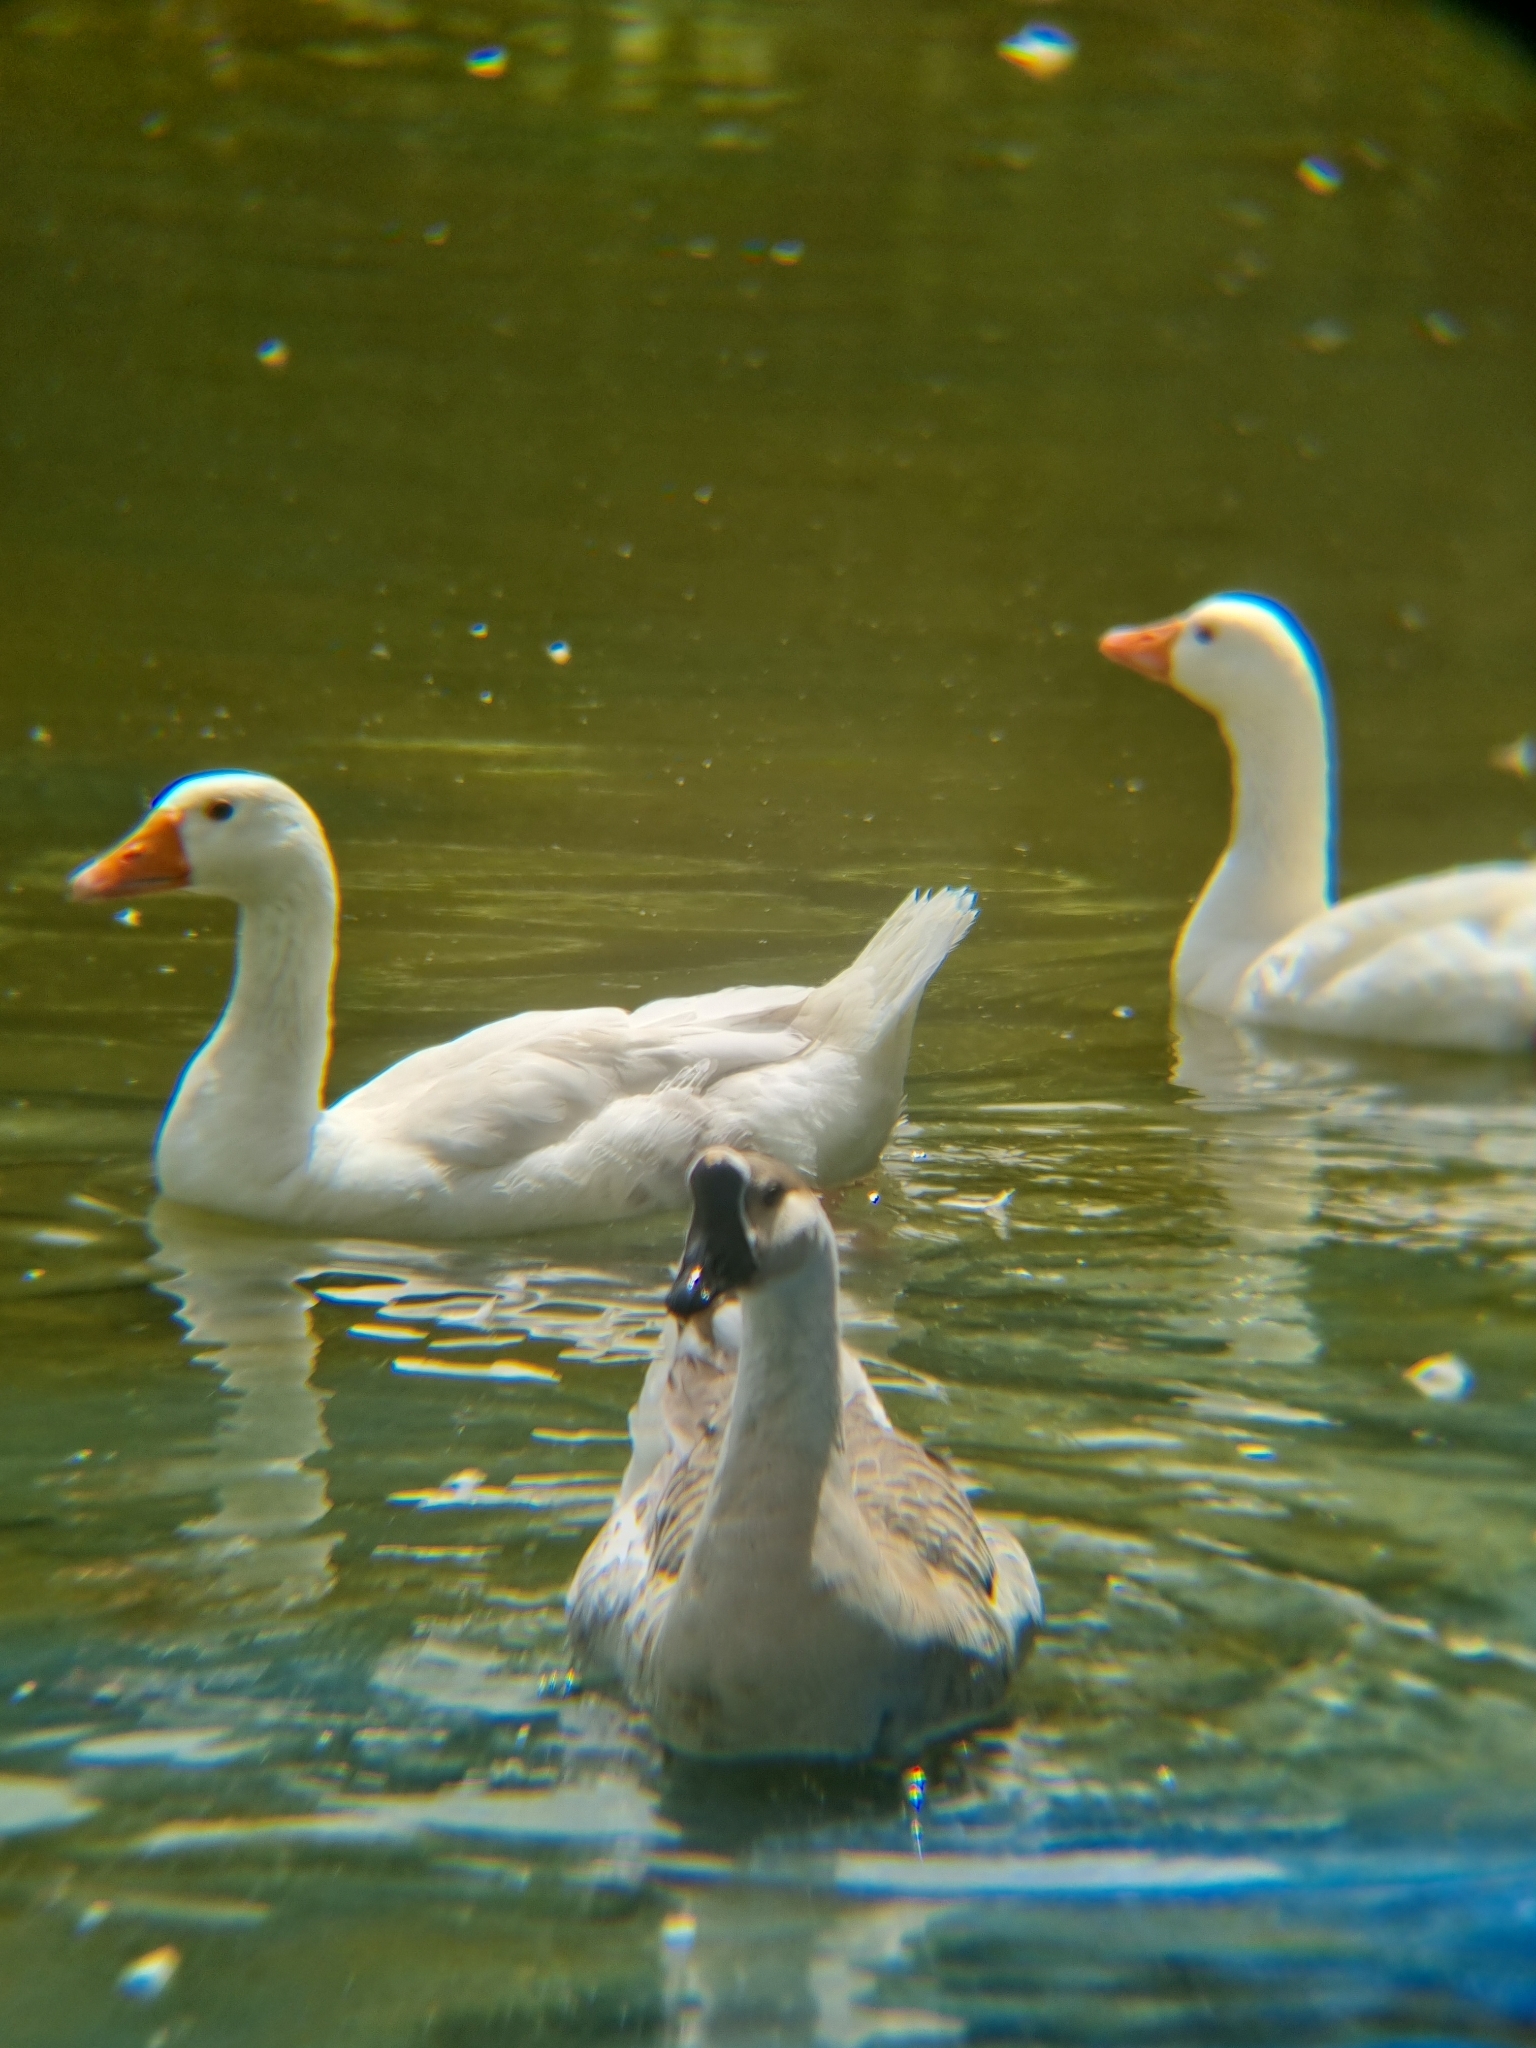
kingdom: Animalia
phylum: Chordata
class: Aves
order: Anseriformes
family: Anatidae
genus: Anser
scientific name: Anser cygnoides
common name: Swan goose
